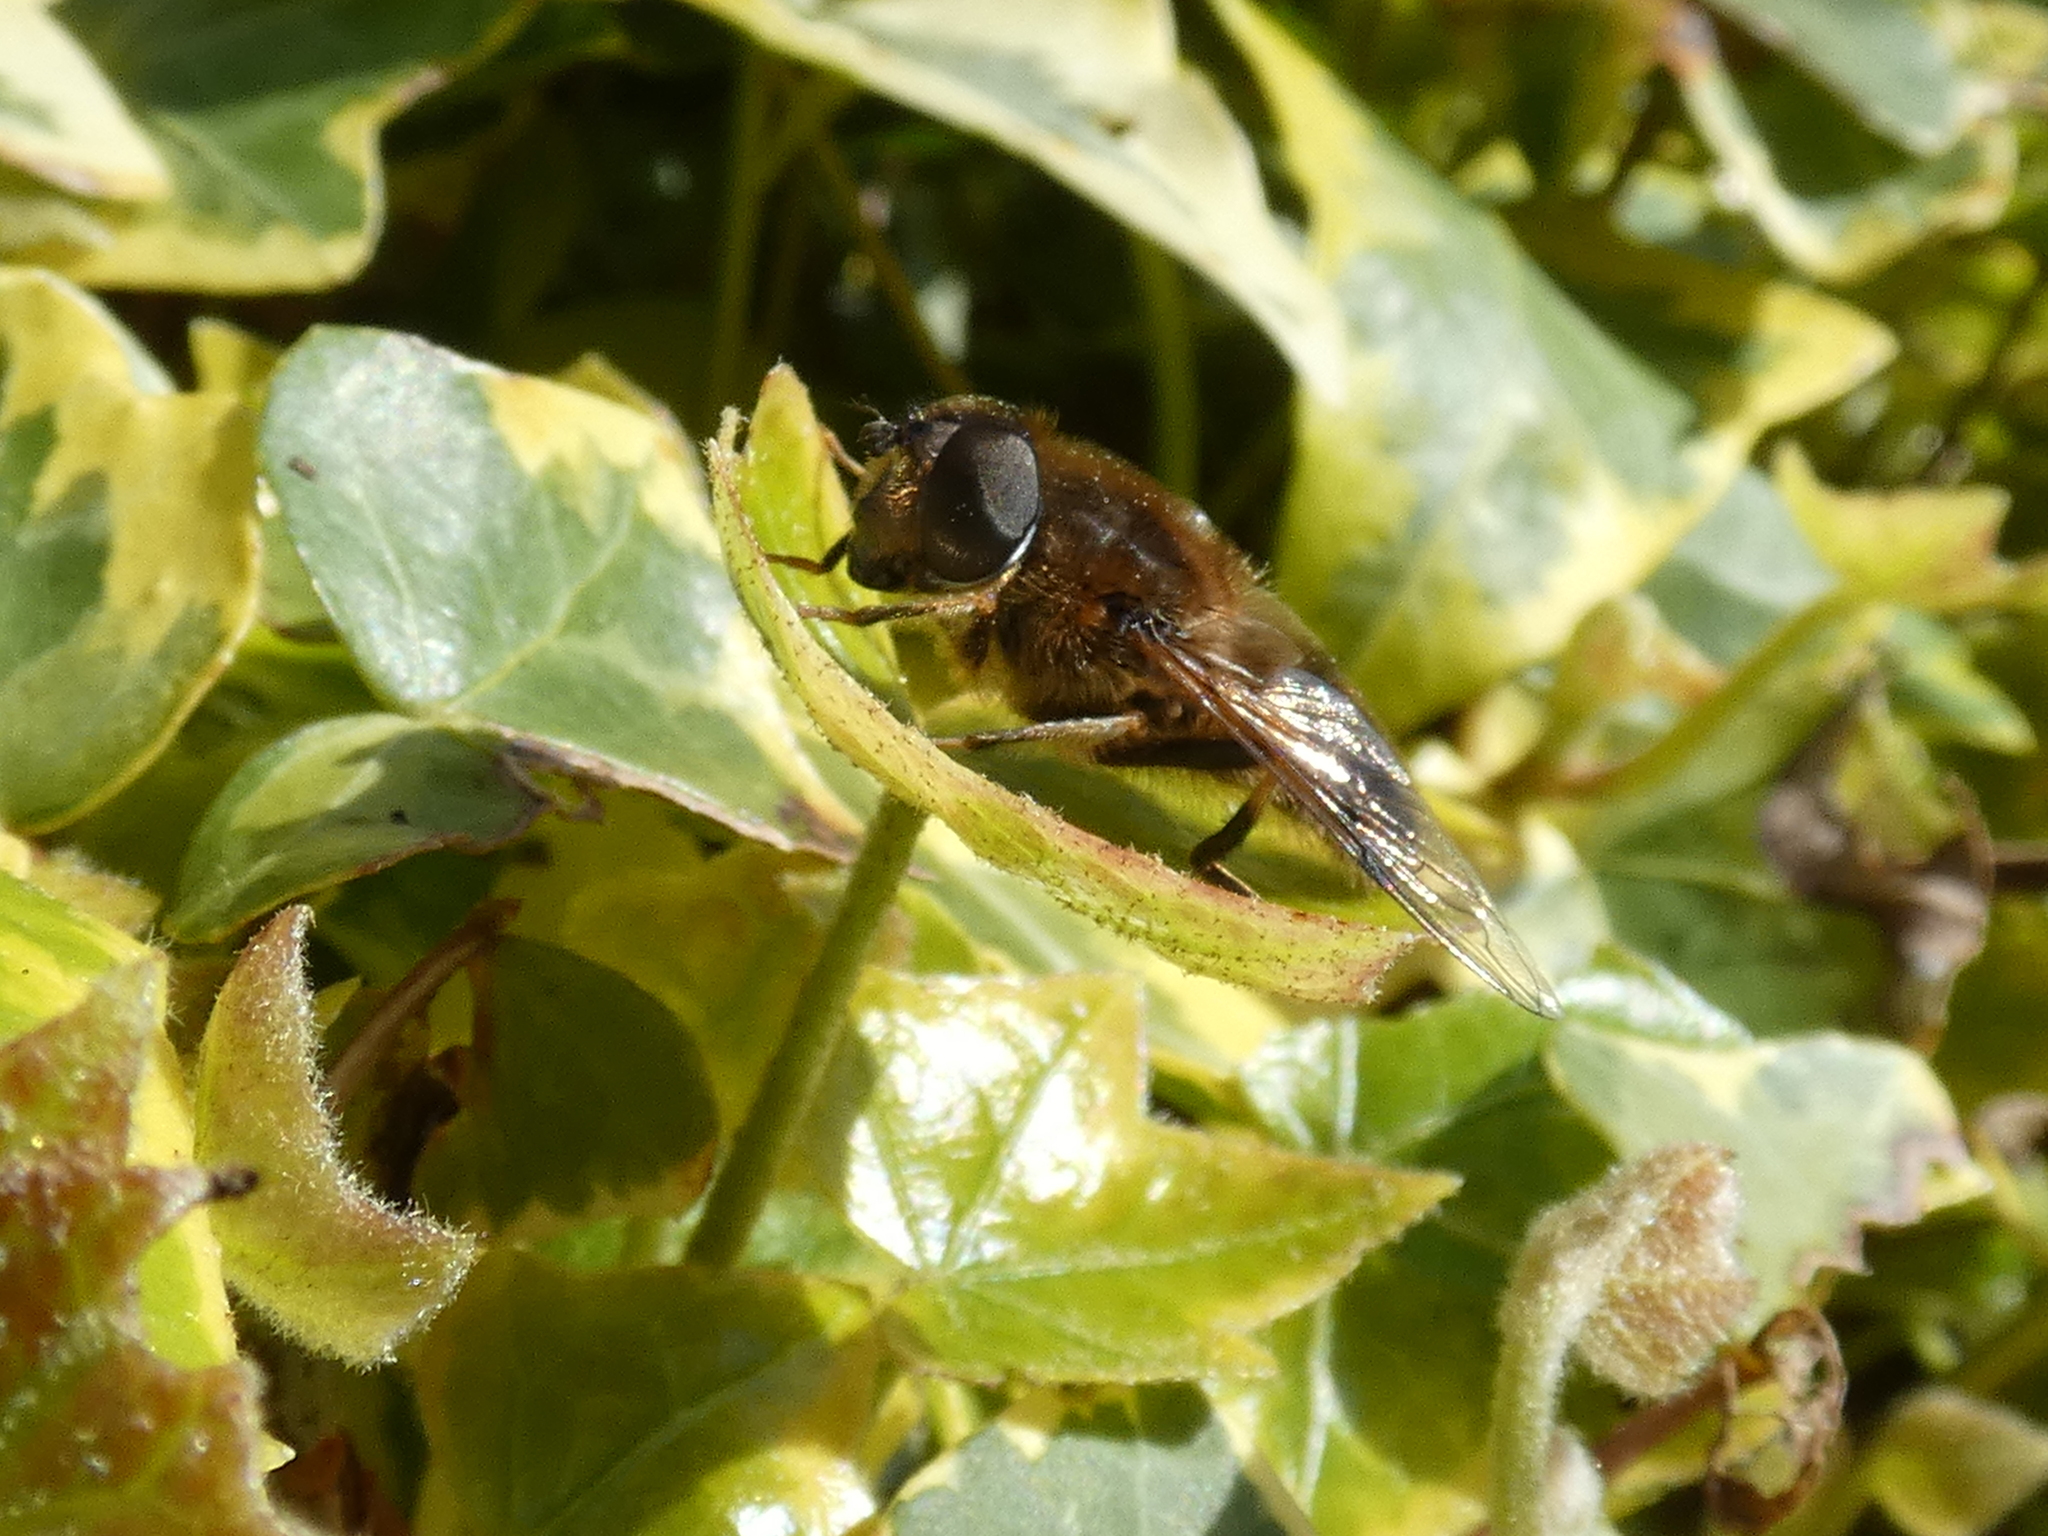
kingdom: Animalia
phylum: Arthropoda
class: Insecta
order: Diptera
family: Syrphidae
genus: Eristalis
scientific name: Eristalis pertinax
